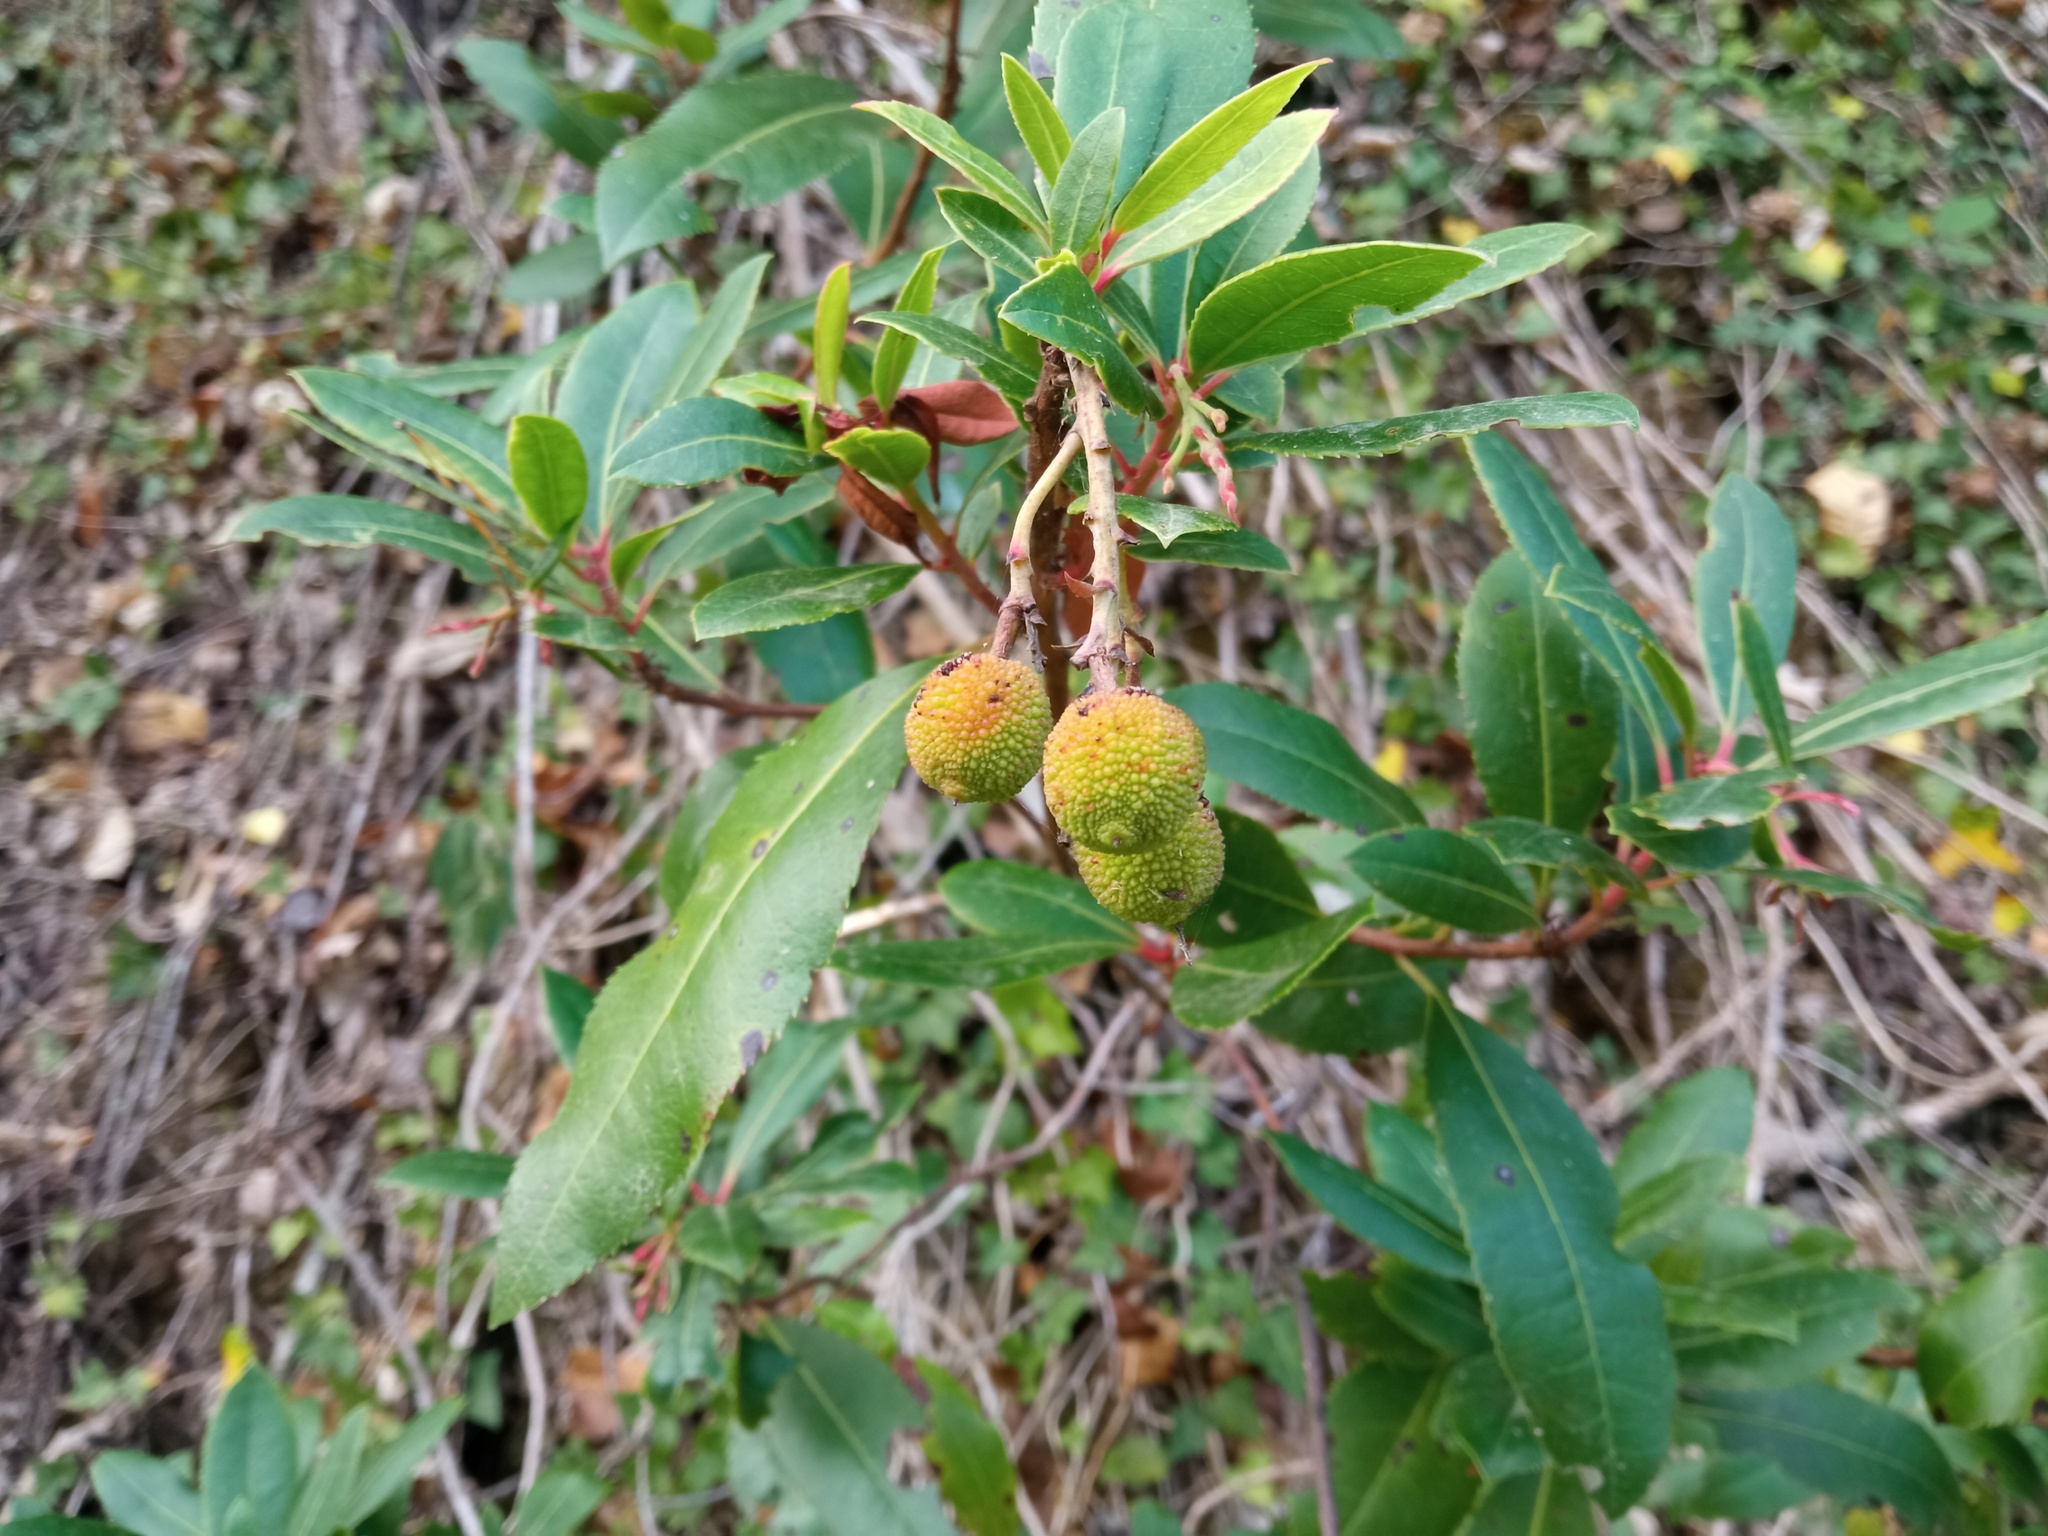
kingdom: Plantae
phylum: Tracheophyta
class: Magnoliopsida
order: Ericales
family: Ericaceae
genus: Arbutus
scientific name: Arbutus unedo
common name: Strawberry-tree
